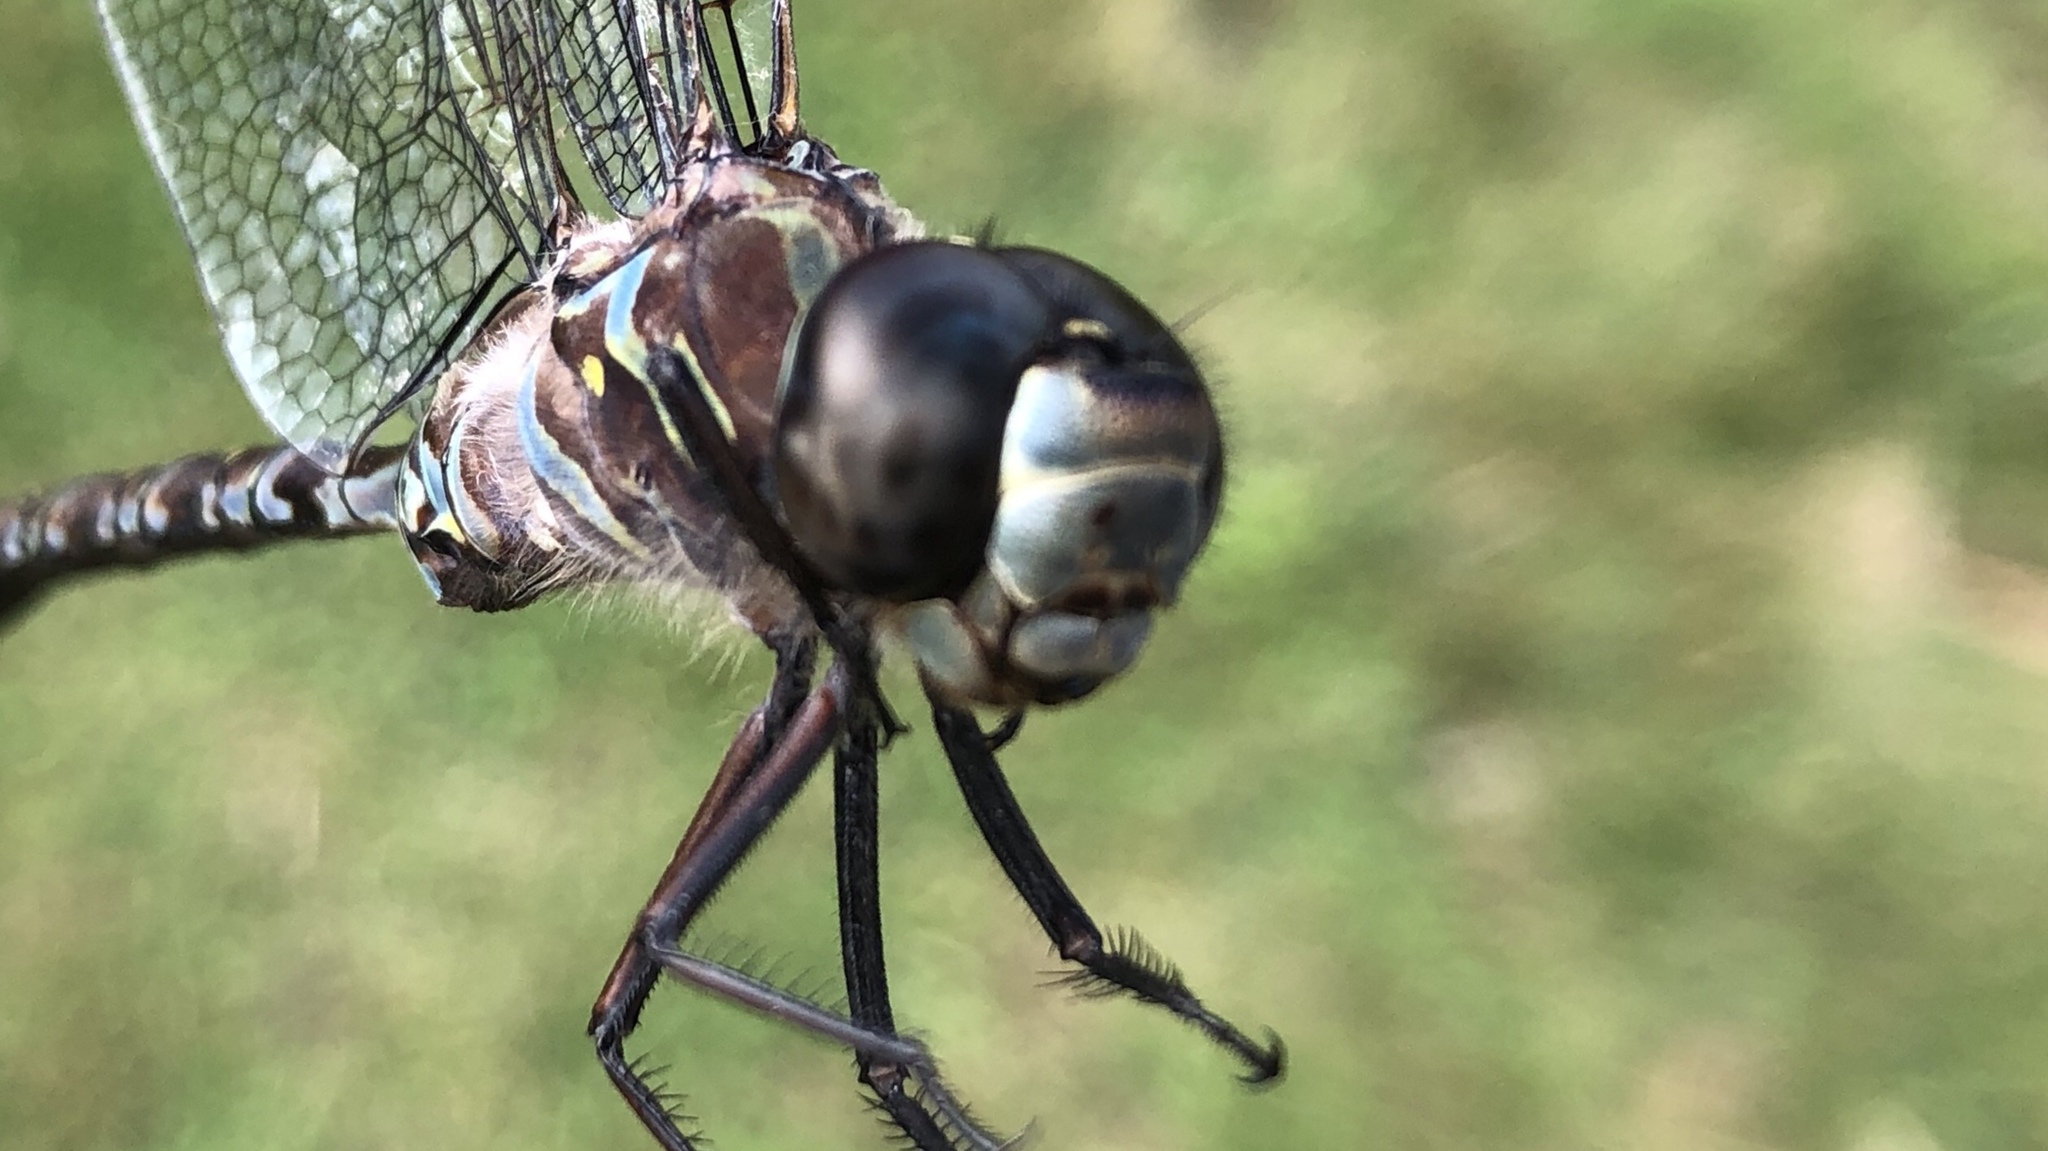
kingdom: Animalia
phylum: Arthropoda
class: Insecta
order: Odonata
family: Aeshnidae
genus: Aeshna
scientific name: Aeshna canadensis
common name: Canada darner
